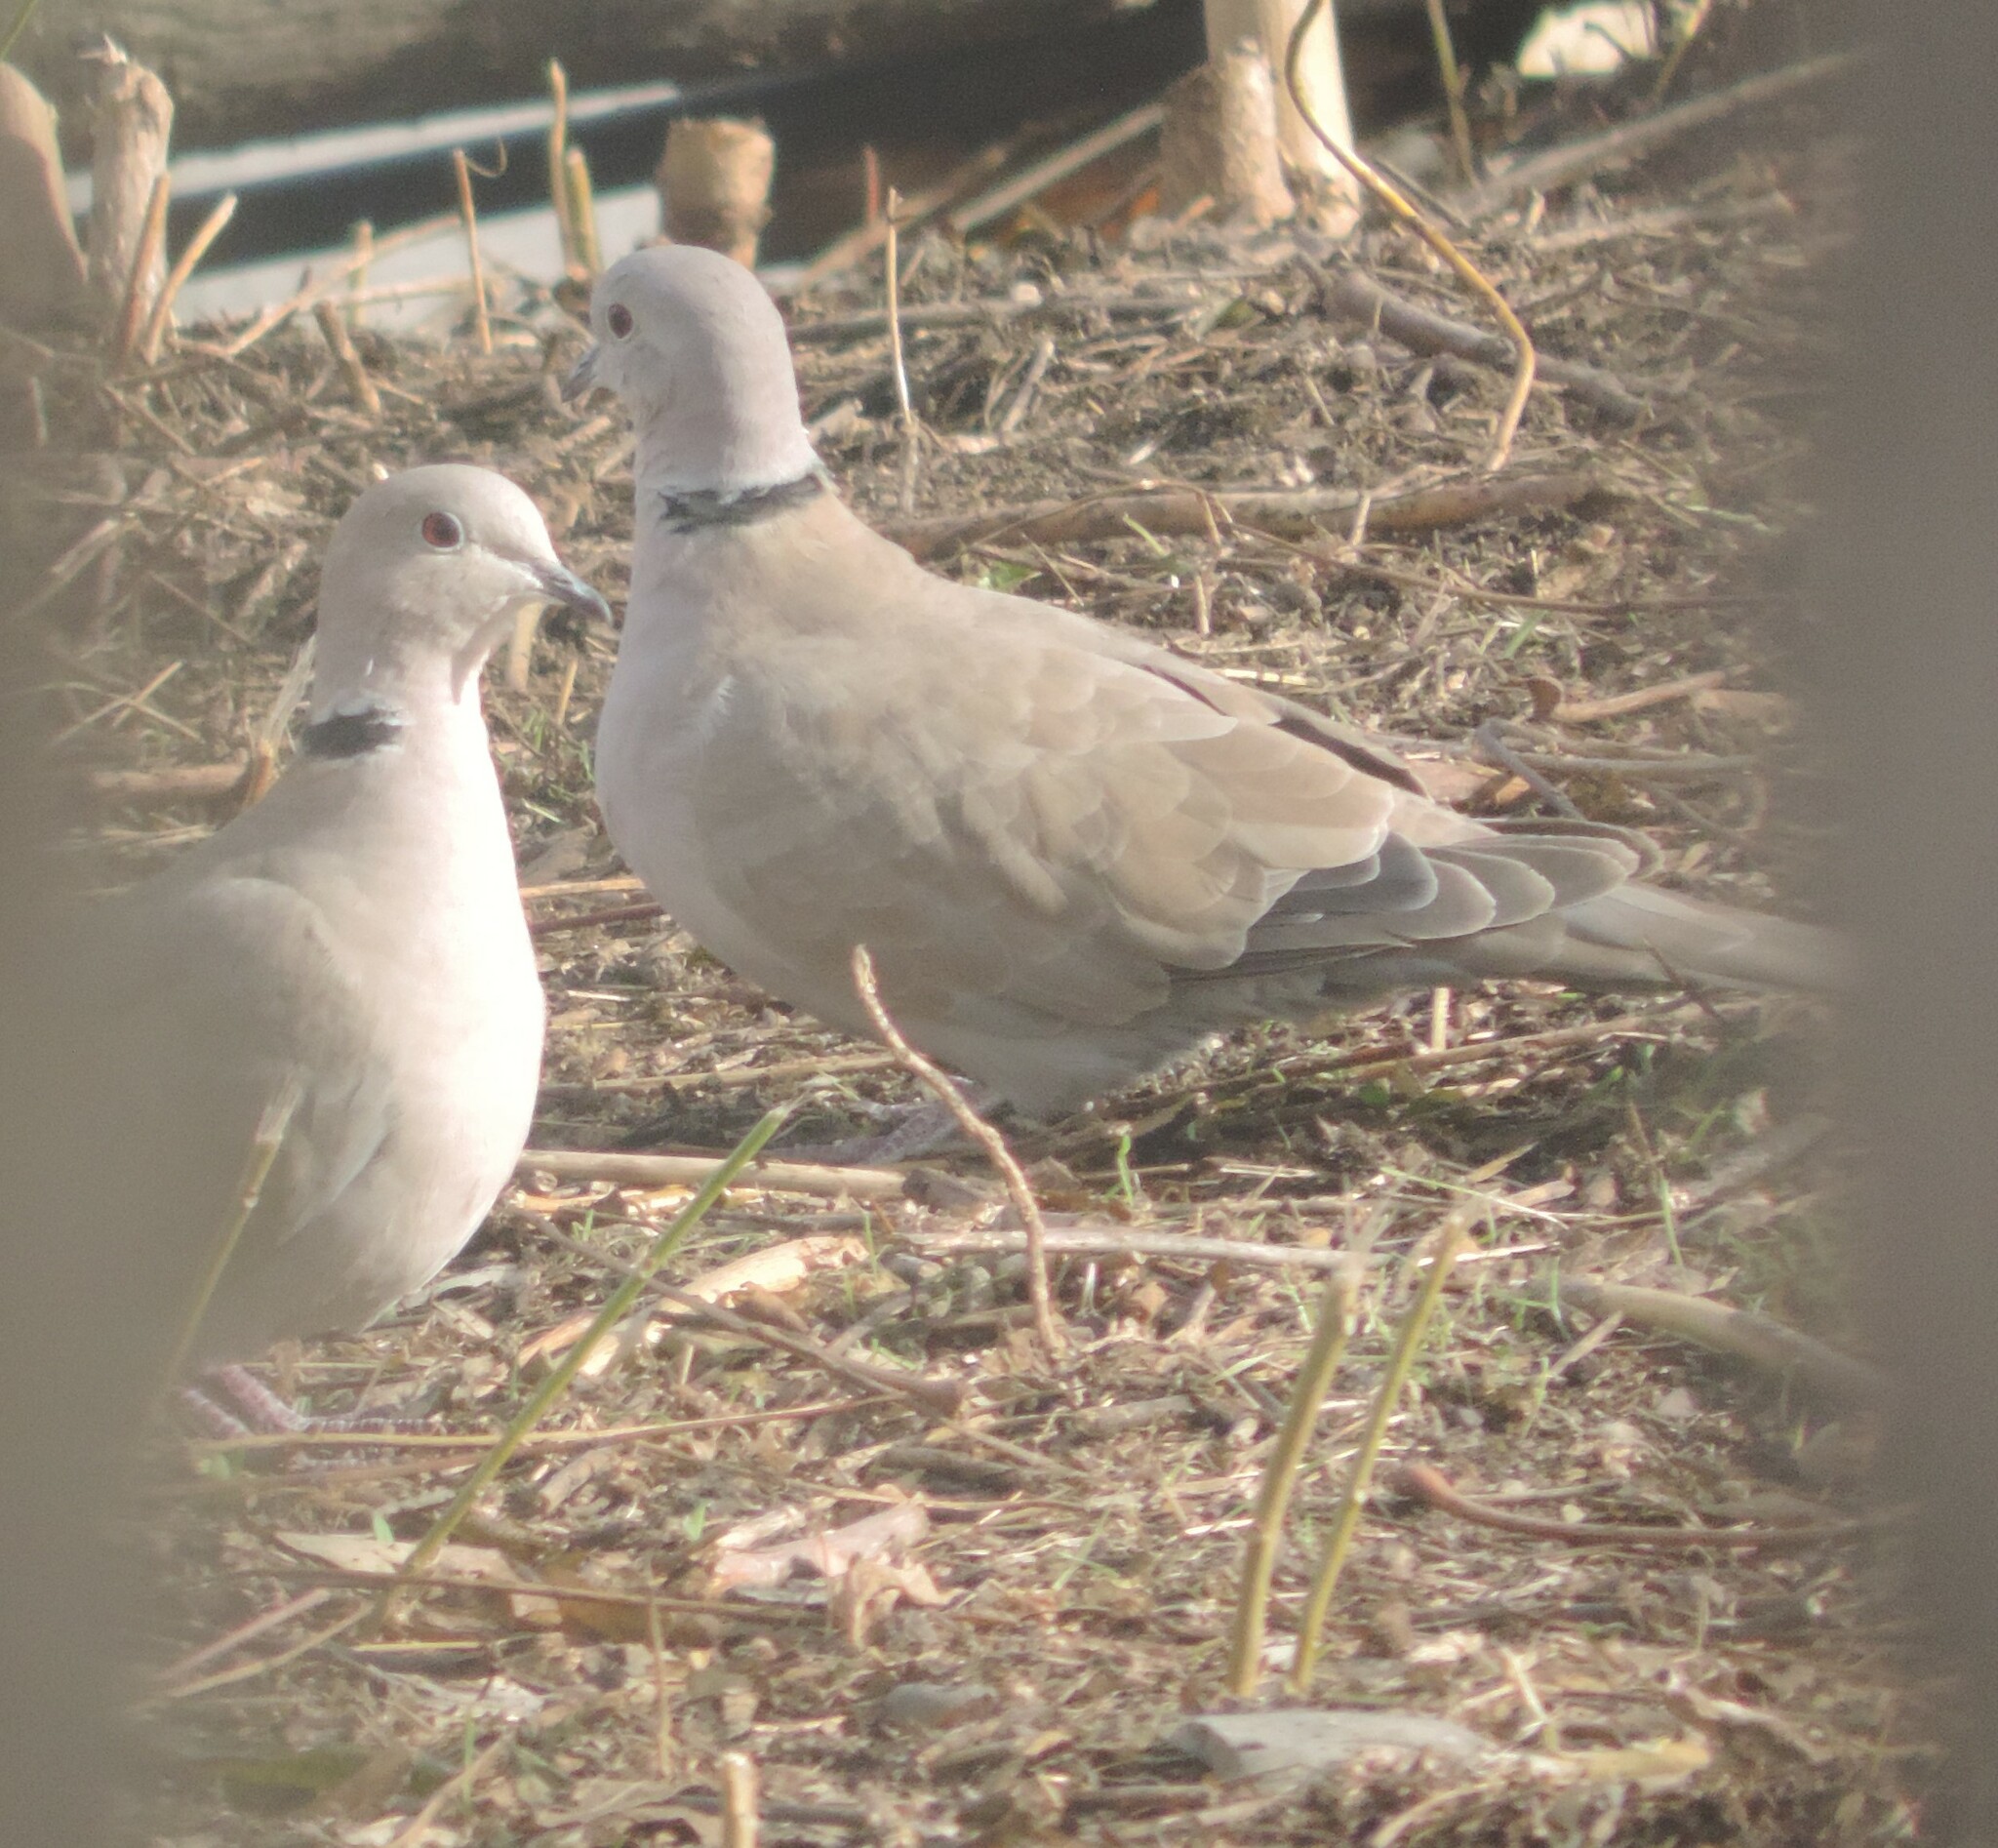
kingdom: Animalia
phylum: Chordata
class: Aves
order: Columbiformes
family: Columbidae
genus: Streptopelia
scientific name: Streptopelia decaocto
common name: Eurasian collared dove
